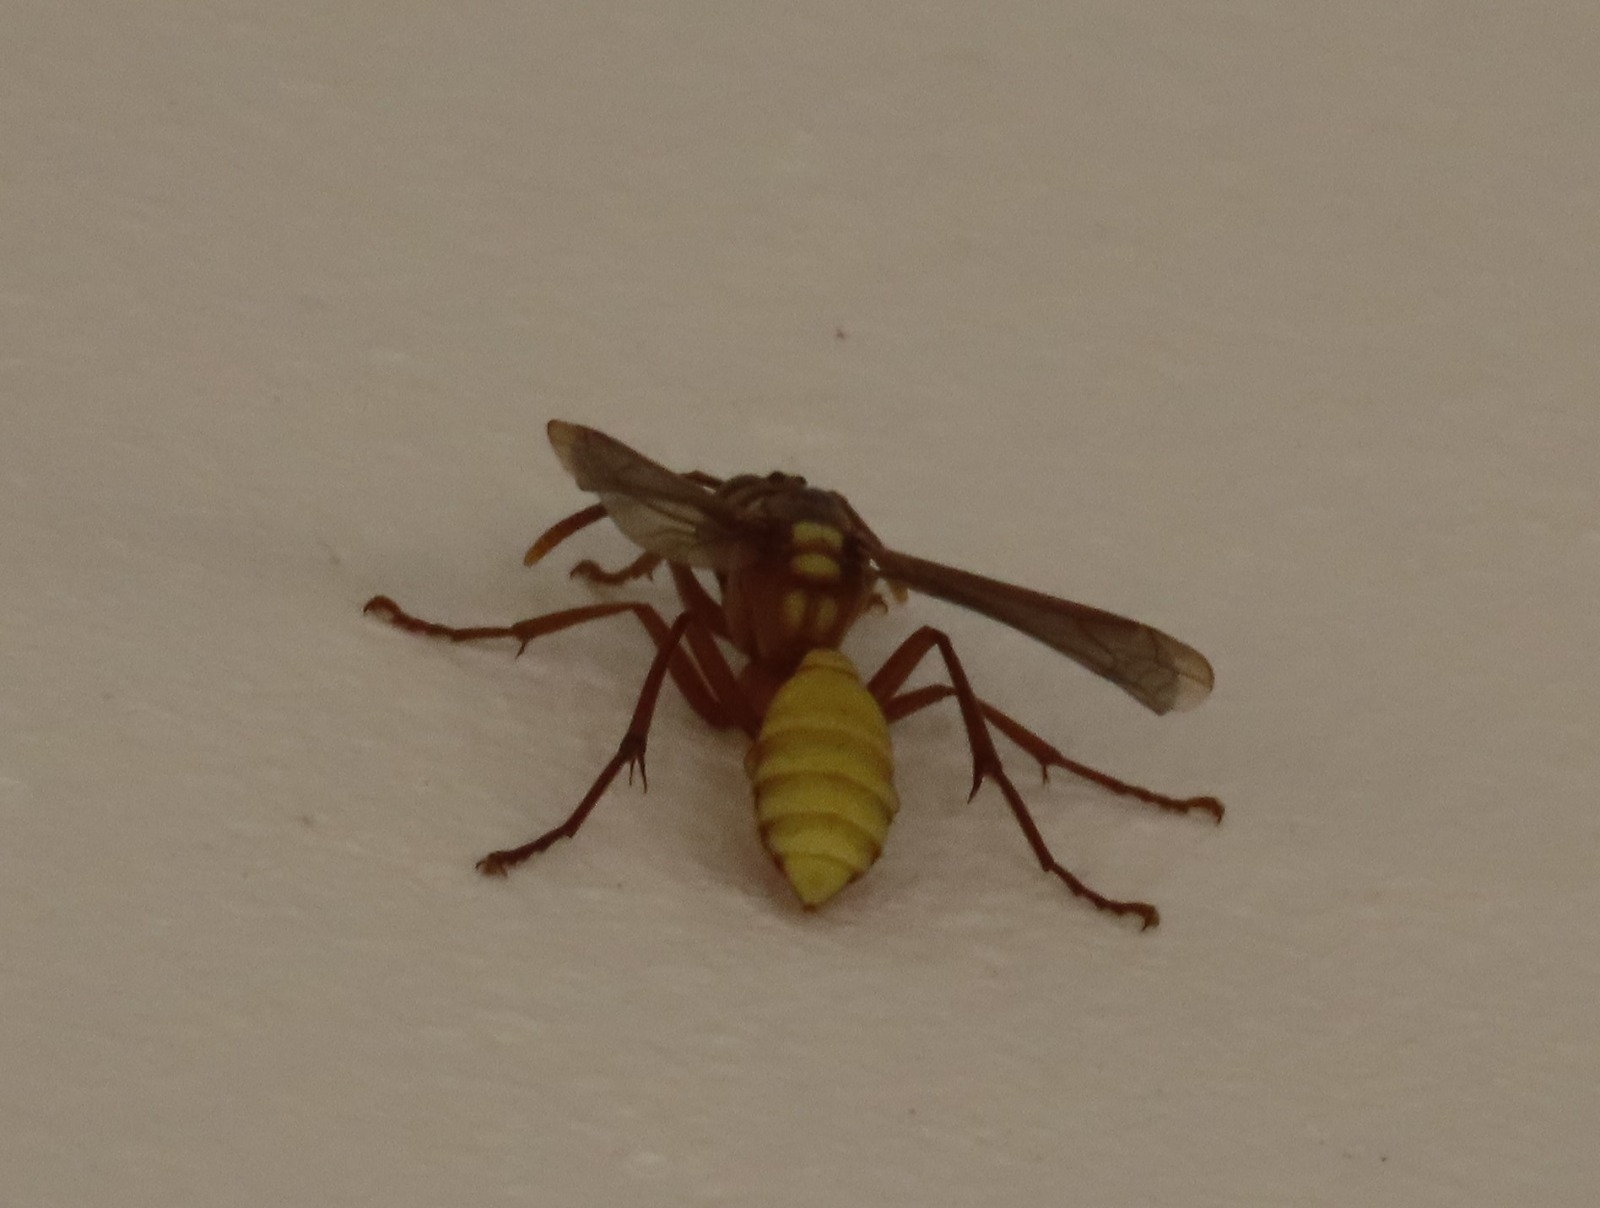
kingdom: Animalia
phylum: Arthropoda
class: Insecta
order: Hymenoptera
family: Vespidae
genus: Apoica
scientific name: Apoica pallens
